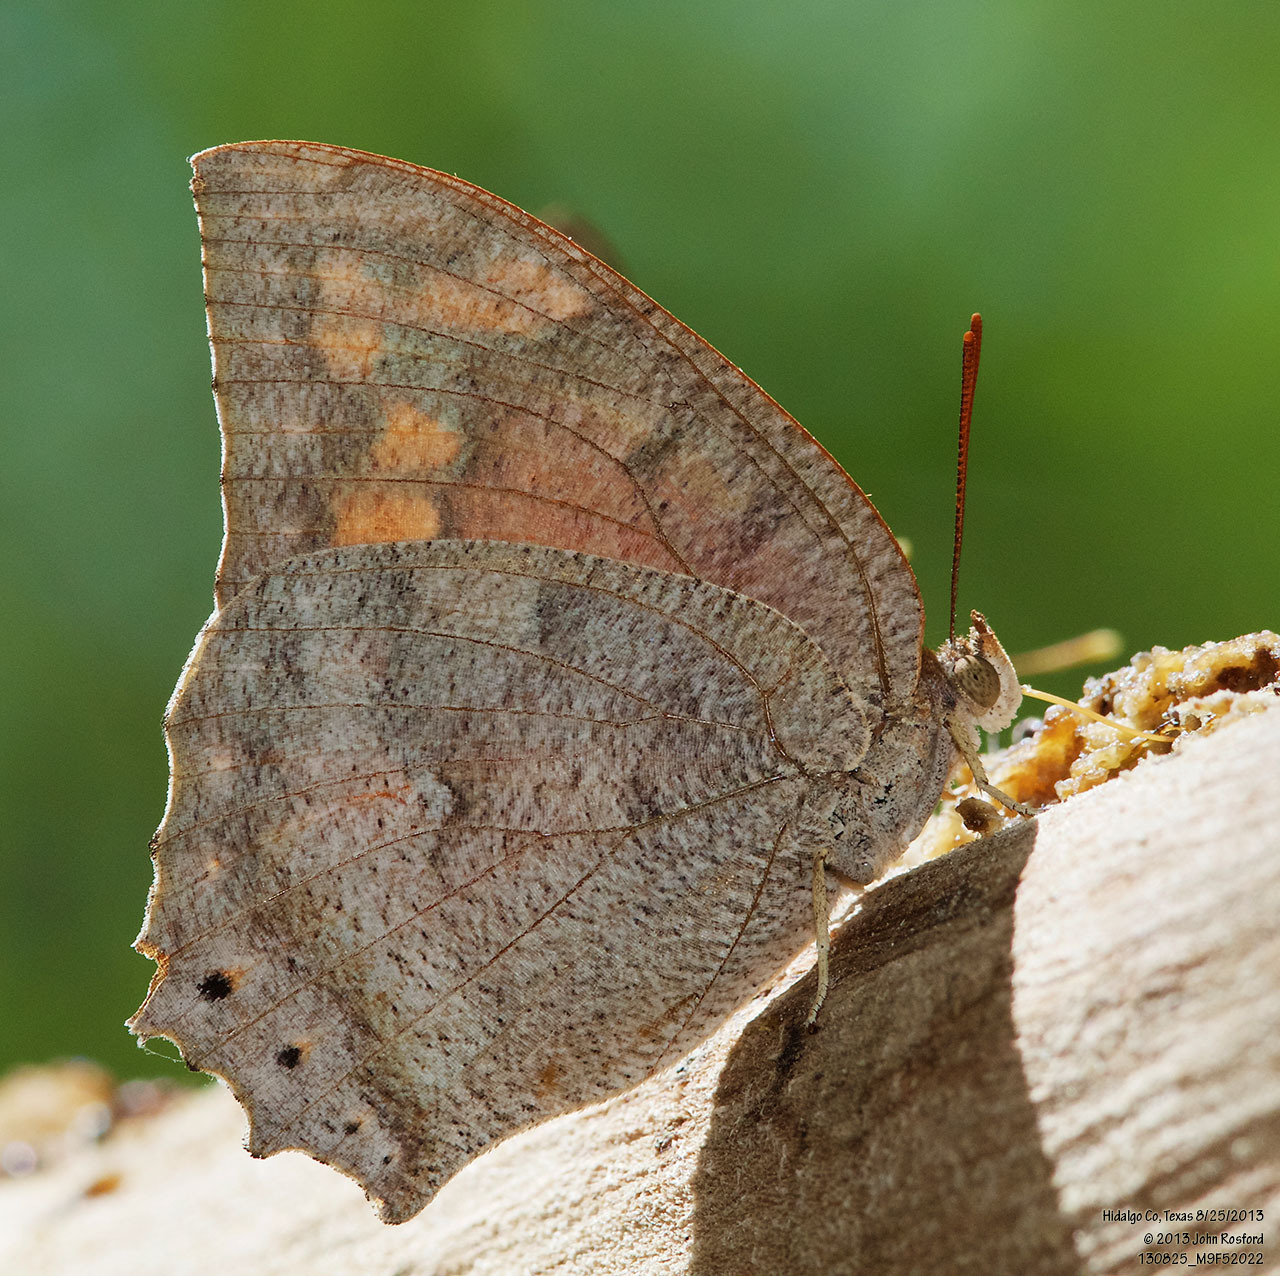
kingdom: Animalia
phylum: Arthropoda
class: Insecta
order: Lepidoptera
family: Nymphalidae
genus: Anaea
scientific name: Anaea aidea
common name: Tropical leafwing
